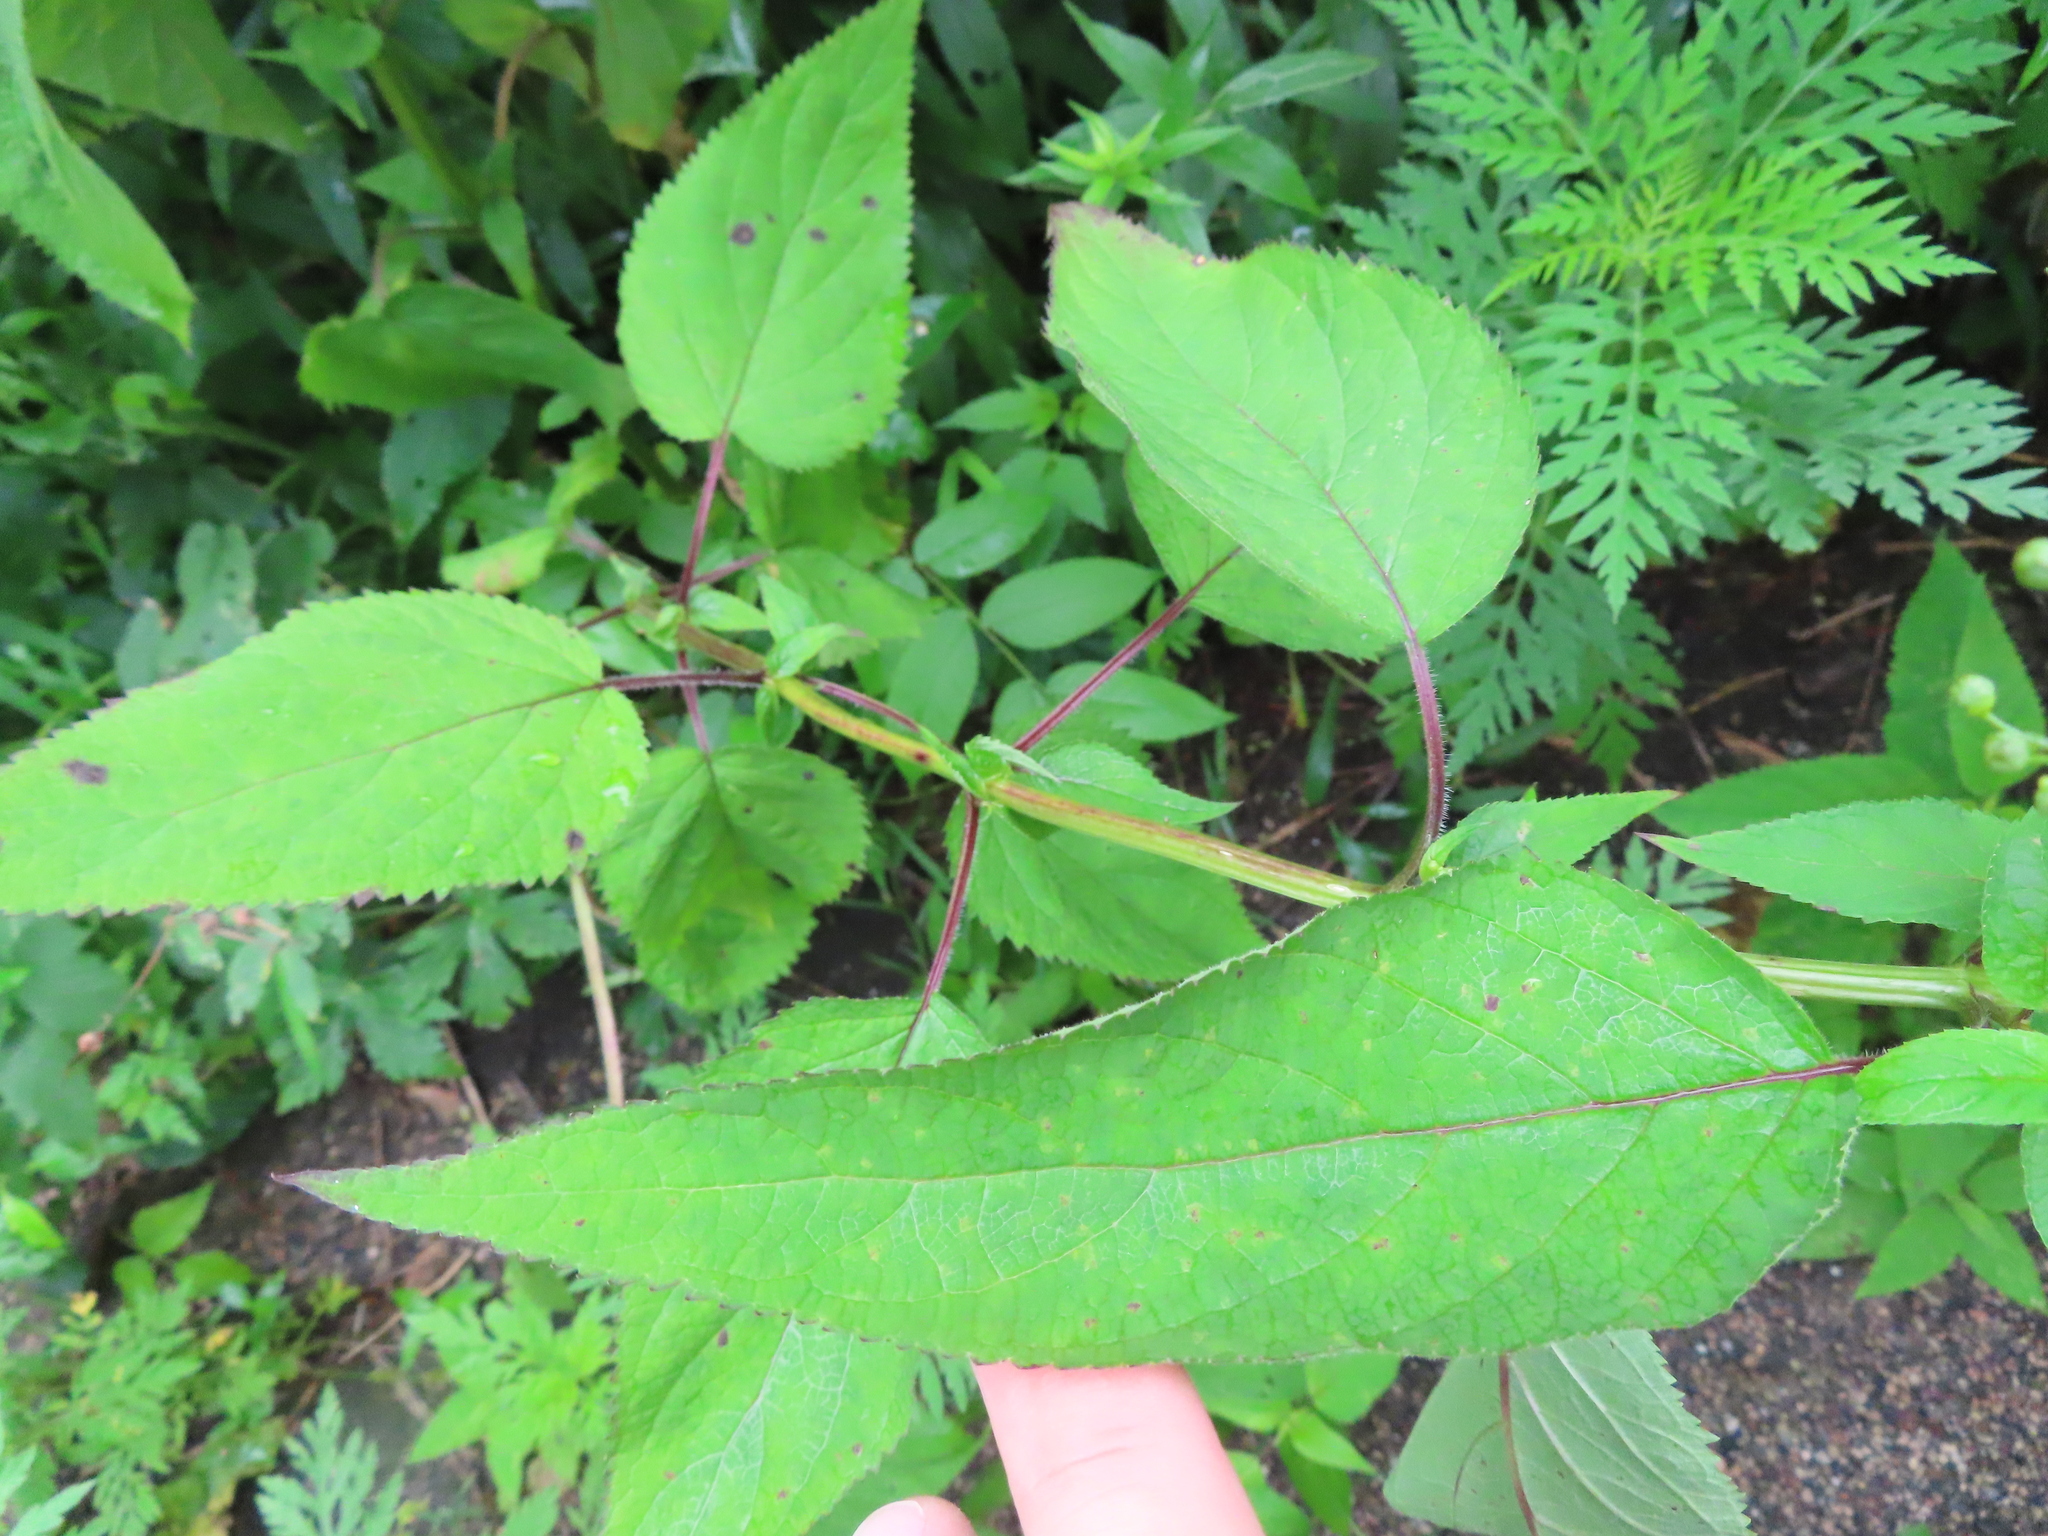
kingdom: Plantae
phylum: Tracheophyta
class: Magnoliopsida
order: Lamiales
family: Scrophulariaceae
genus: Scrophularia
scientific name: Scrophularia marilandica
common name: Eastern figwort
